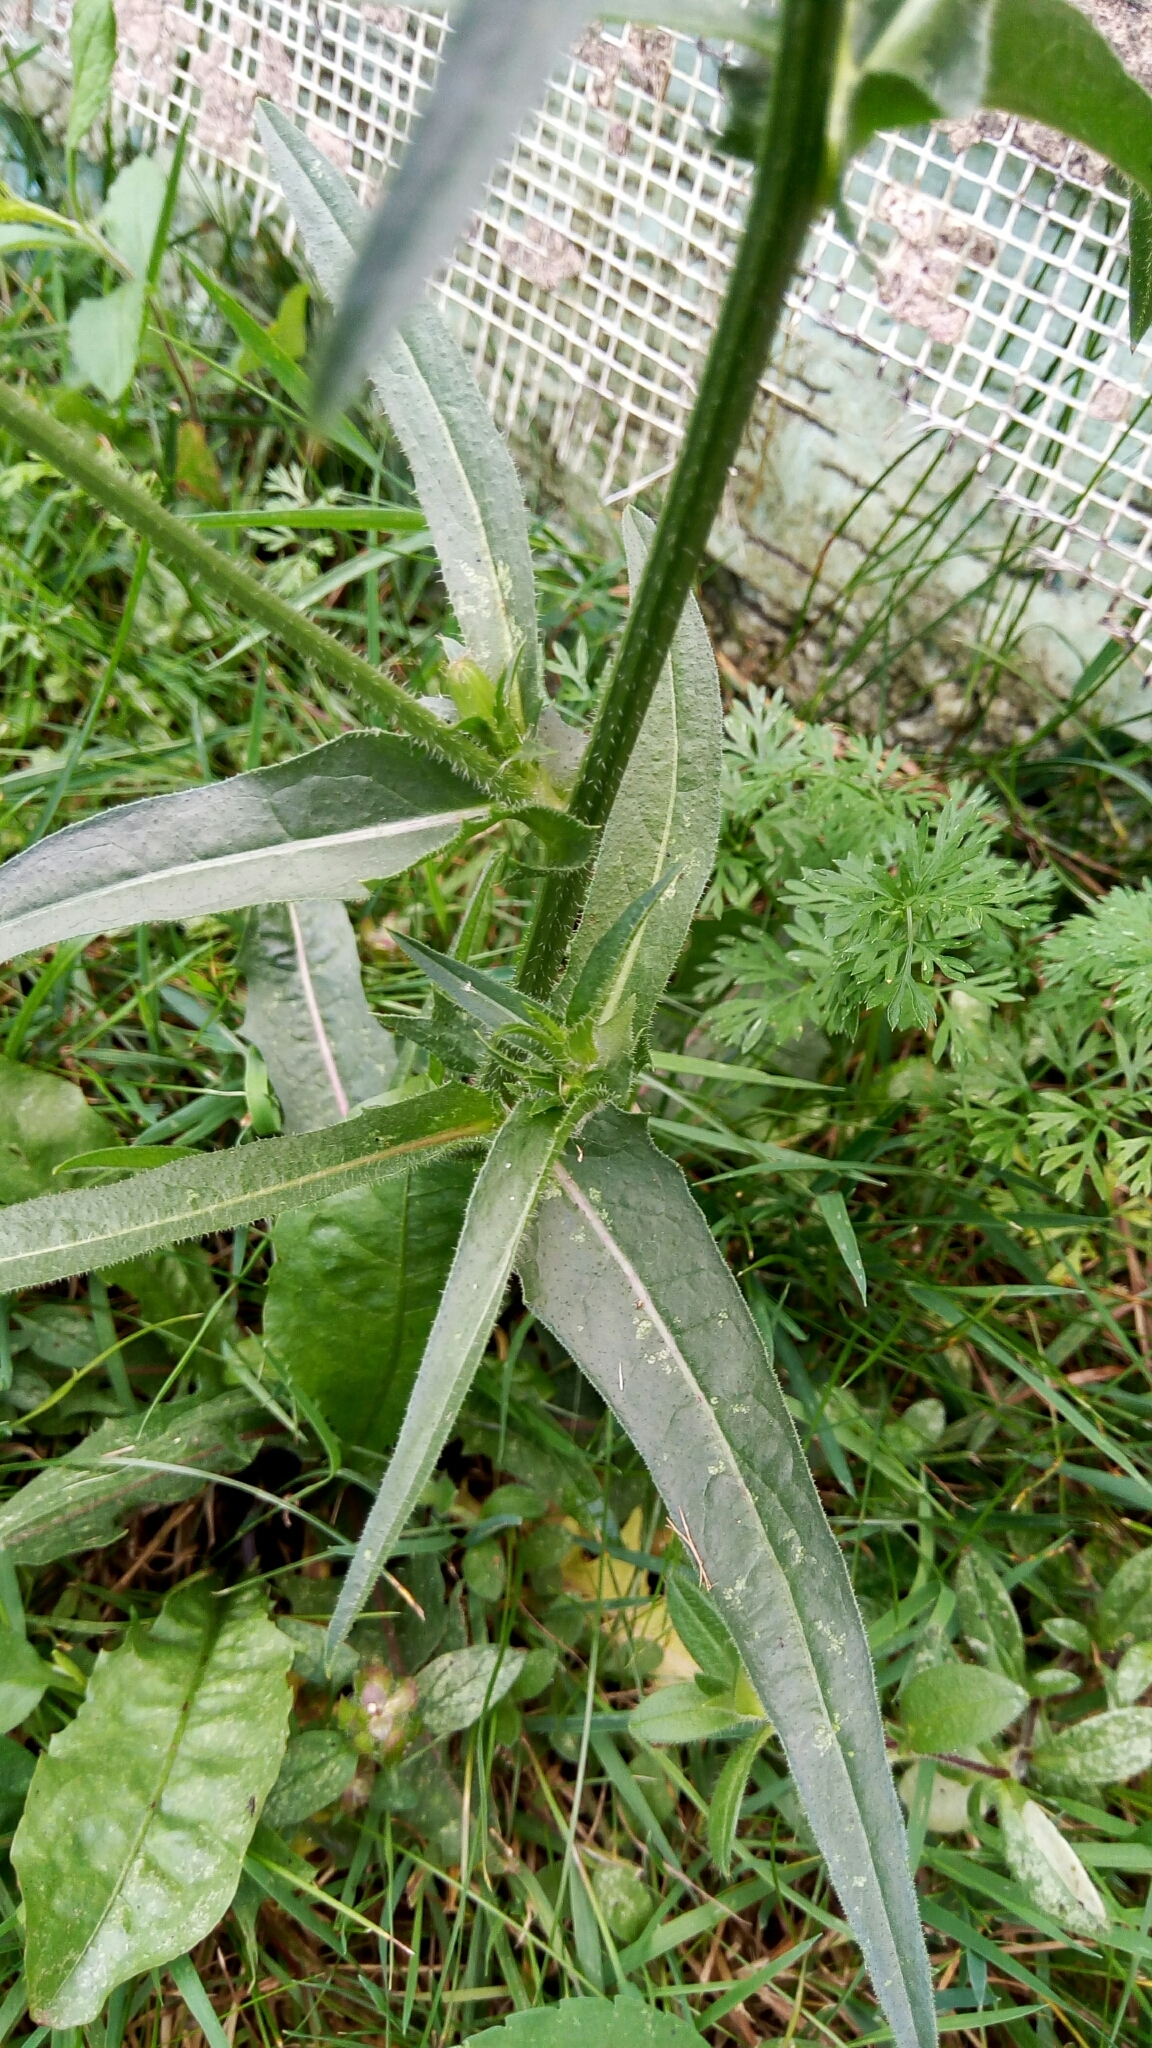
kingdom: Plantae
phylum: Tracheophyta
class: Magnoliopsida
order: Asterales
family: Asteraceae
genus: Cichorium
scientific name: Cichorium intybus
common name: Chicory
